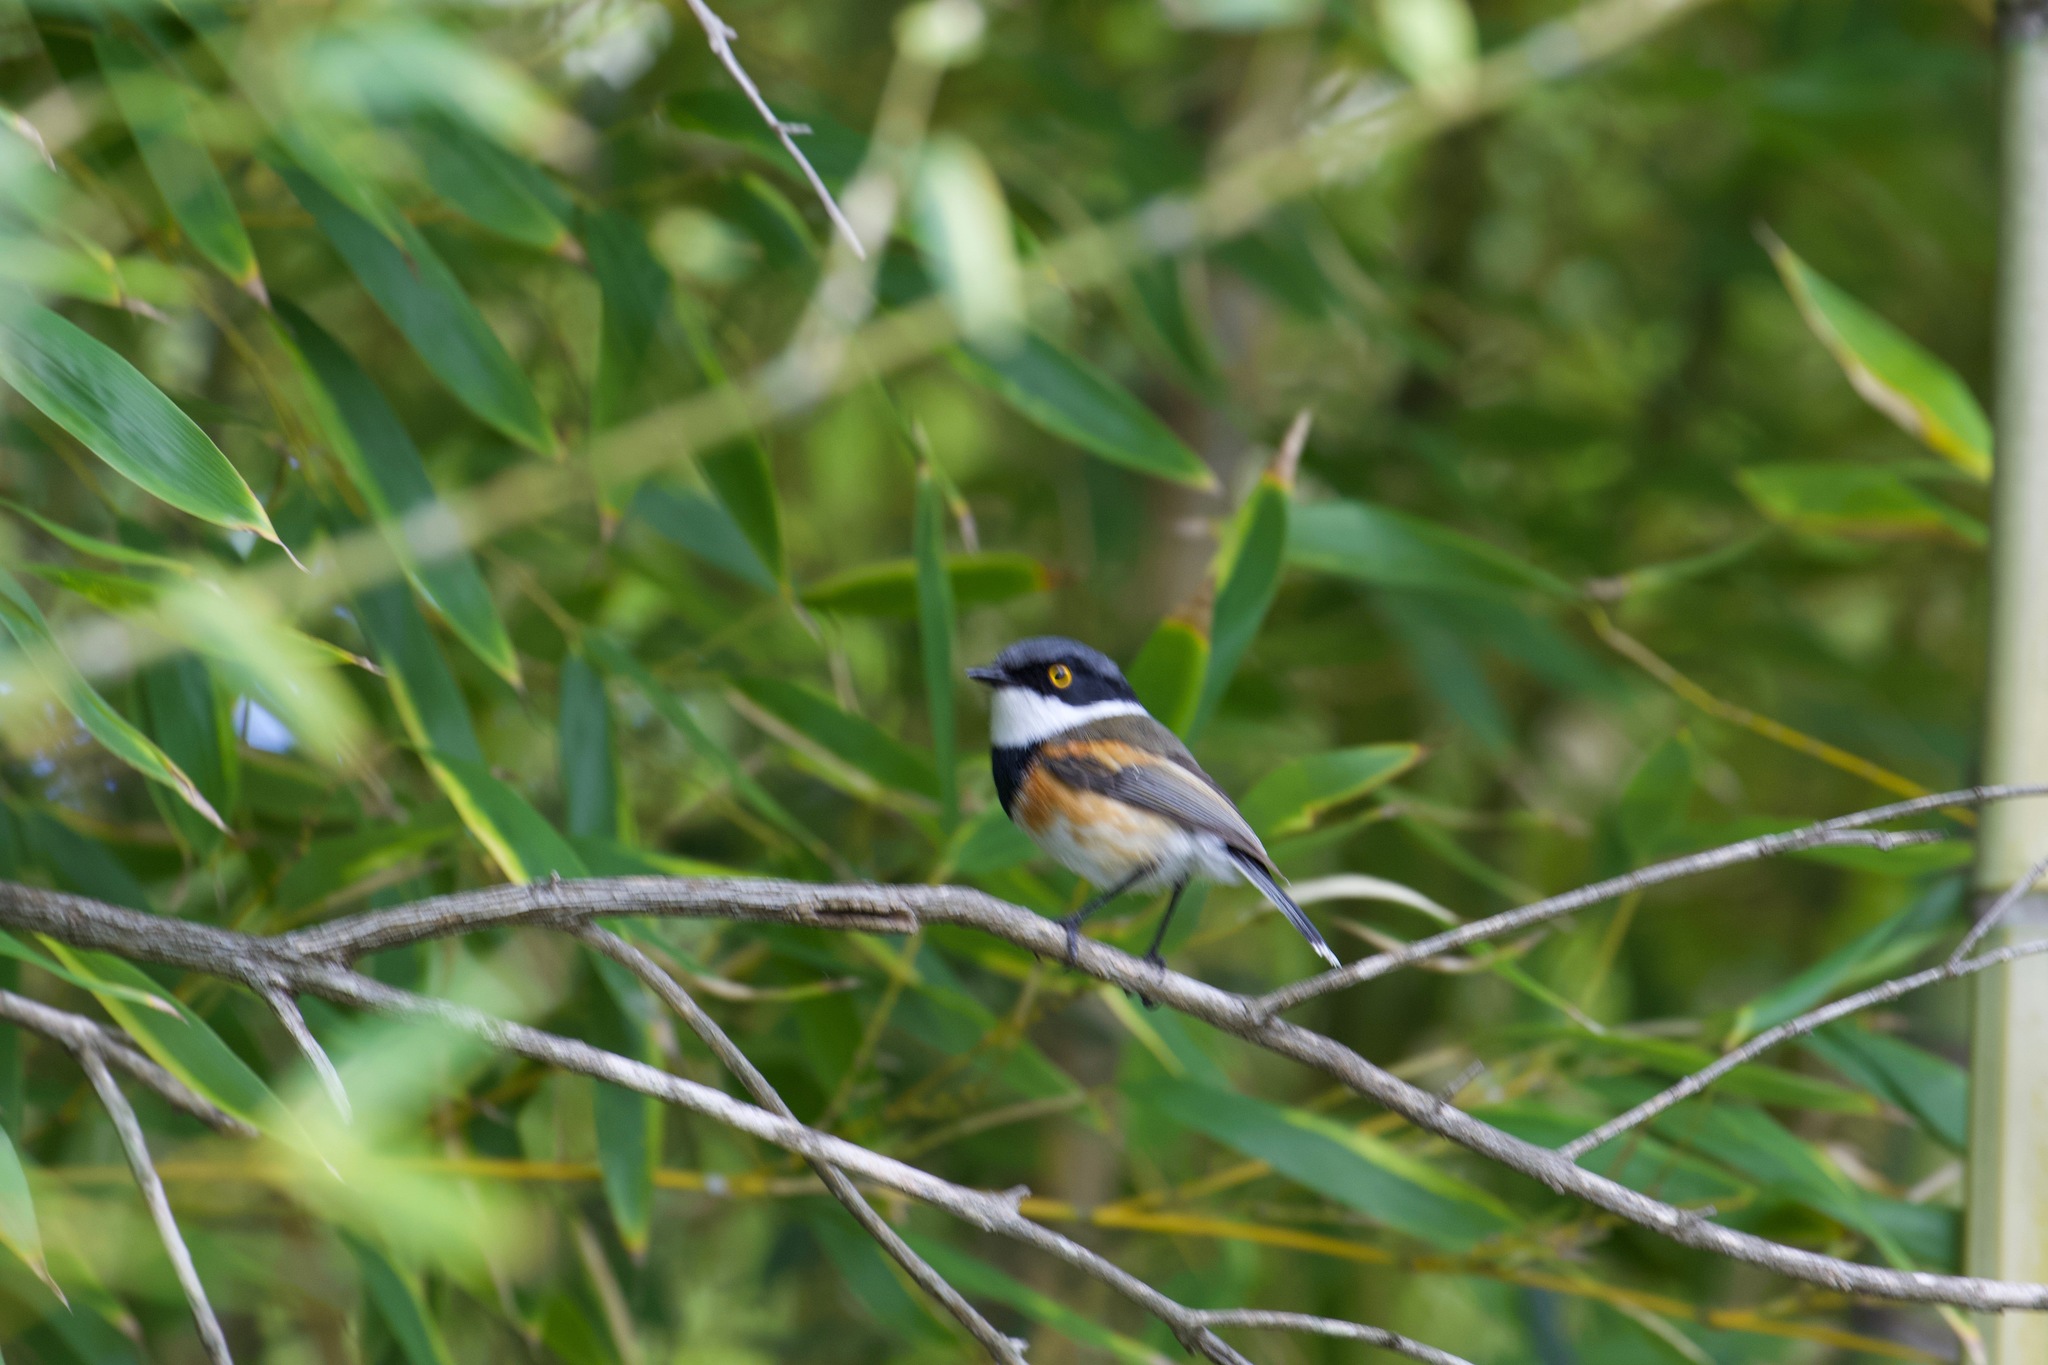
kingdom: Animalia
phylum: Chordata
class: Aves
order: Passeriformes
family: Platysteiridae
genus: Batis
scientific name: Batis capensis
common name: Cape batis
